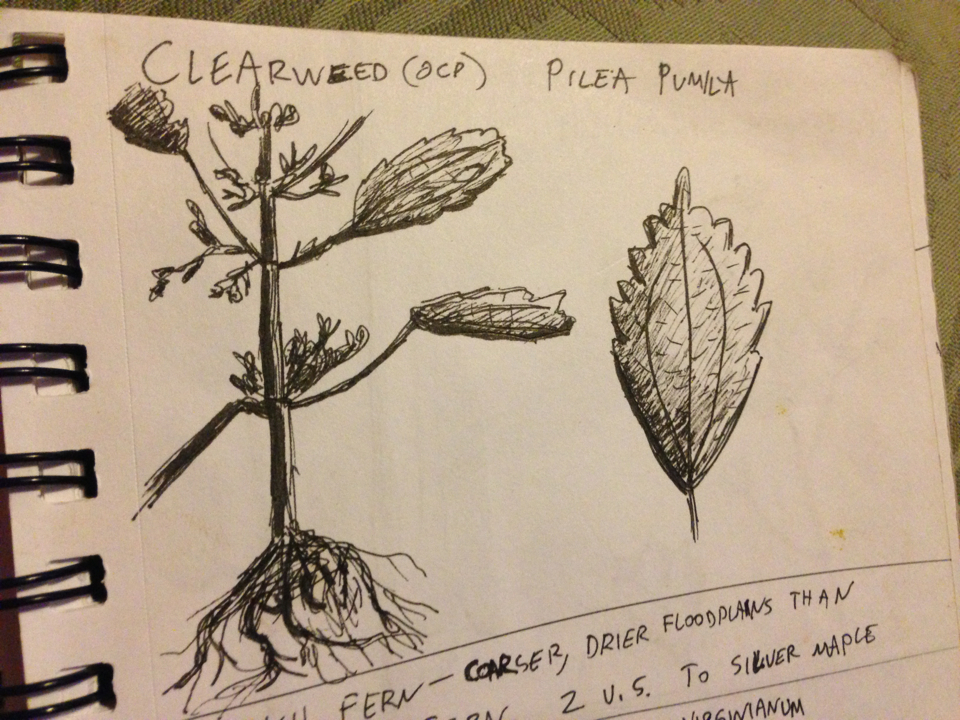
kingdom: Plantae
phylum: Tracheophyta
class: Magnoliopsida
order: Rosales
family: Urticaceae
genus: Pilea
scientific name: Pilea pumila
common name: Clearweed
